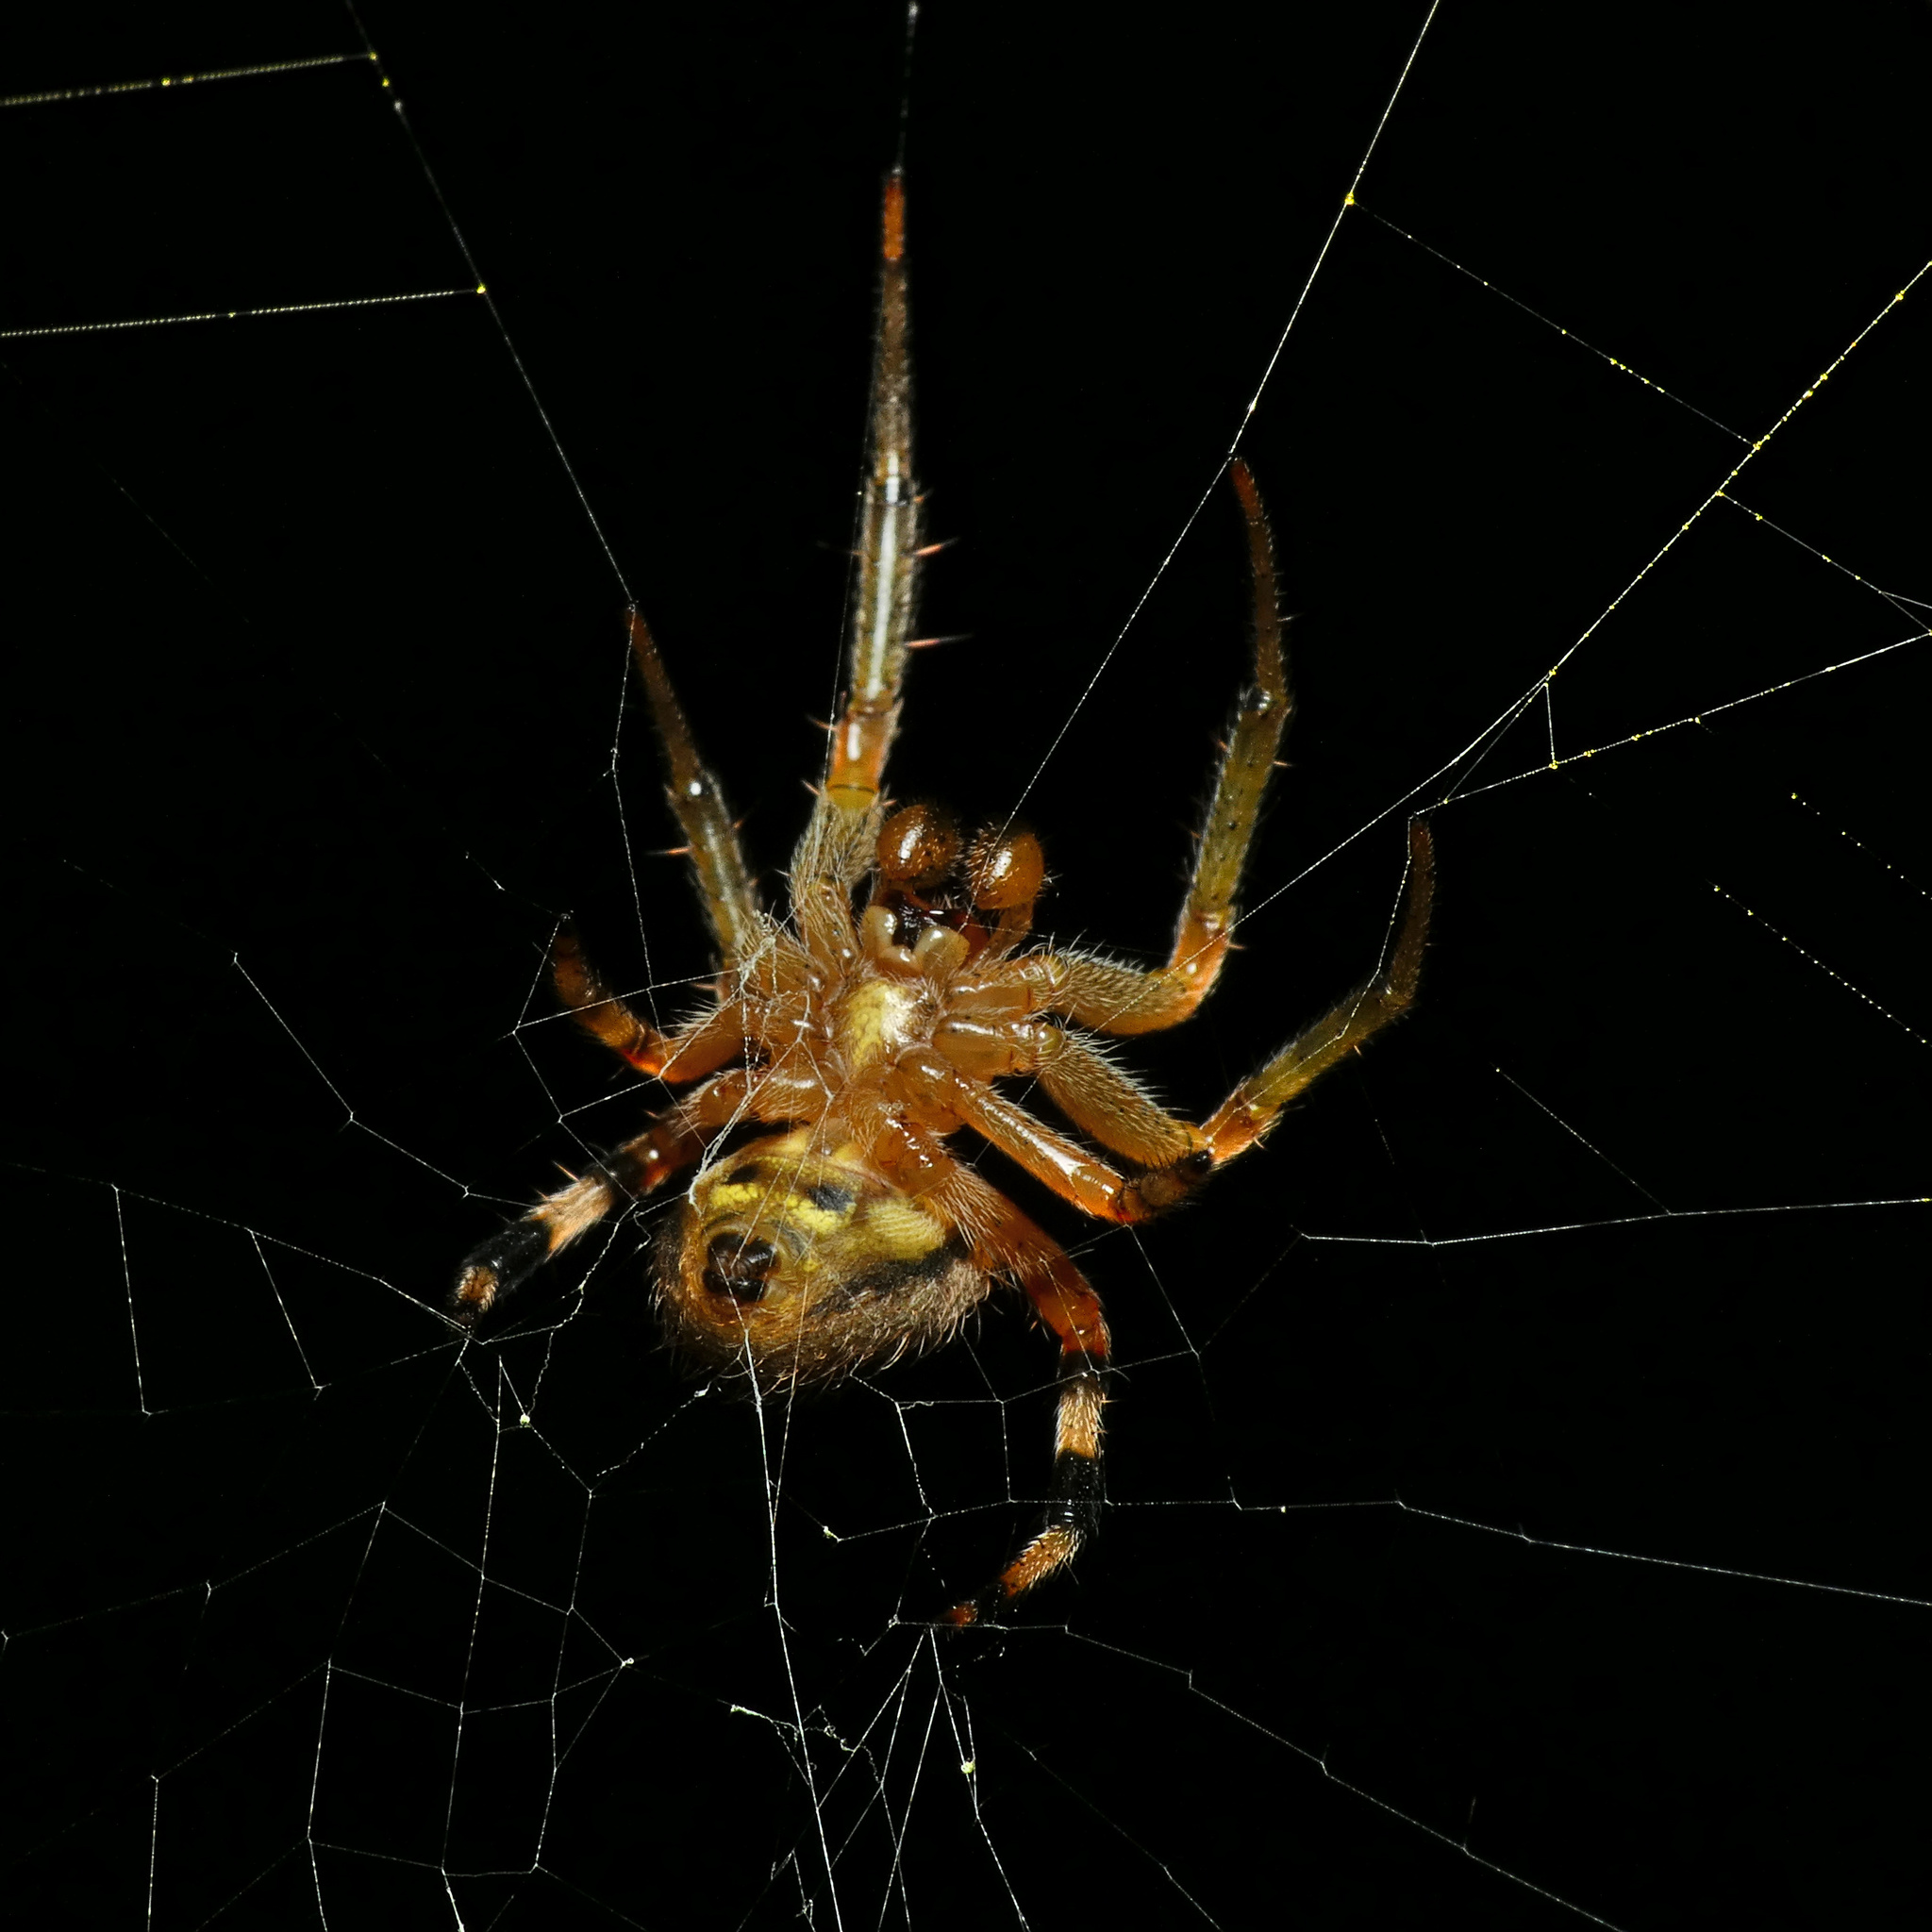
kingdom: Animalia
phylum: Arthropoda
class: Arachnida
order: Araneae
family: Araneidae
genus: Neoscona
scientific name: Neoscona triangula
